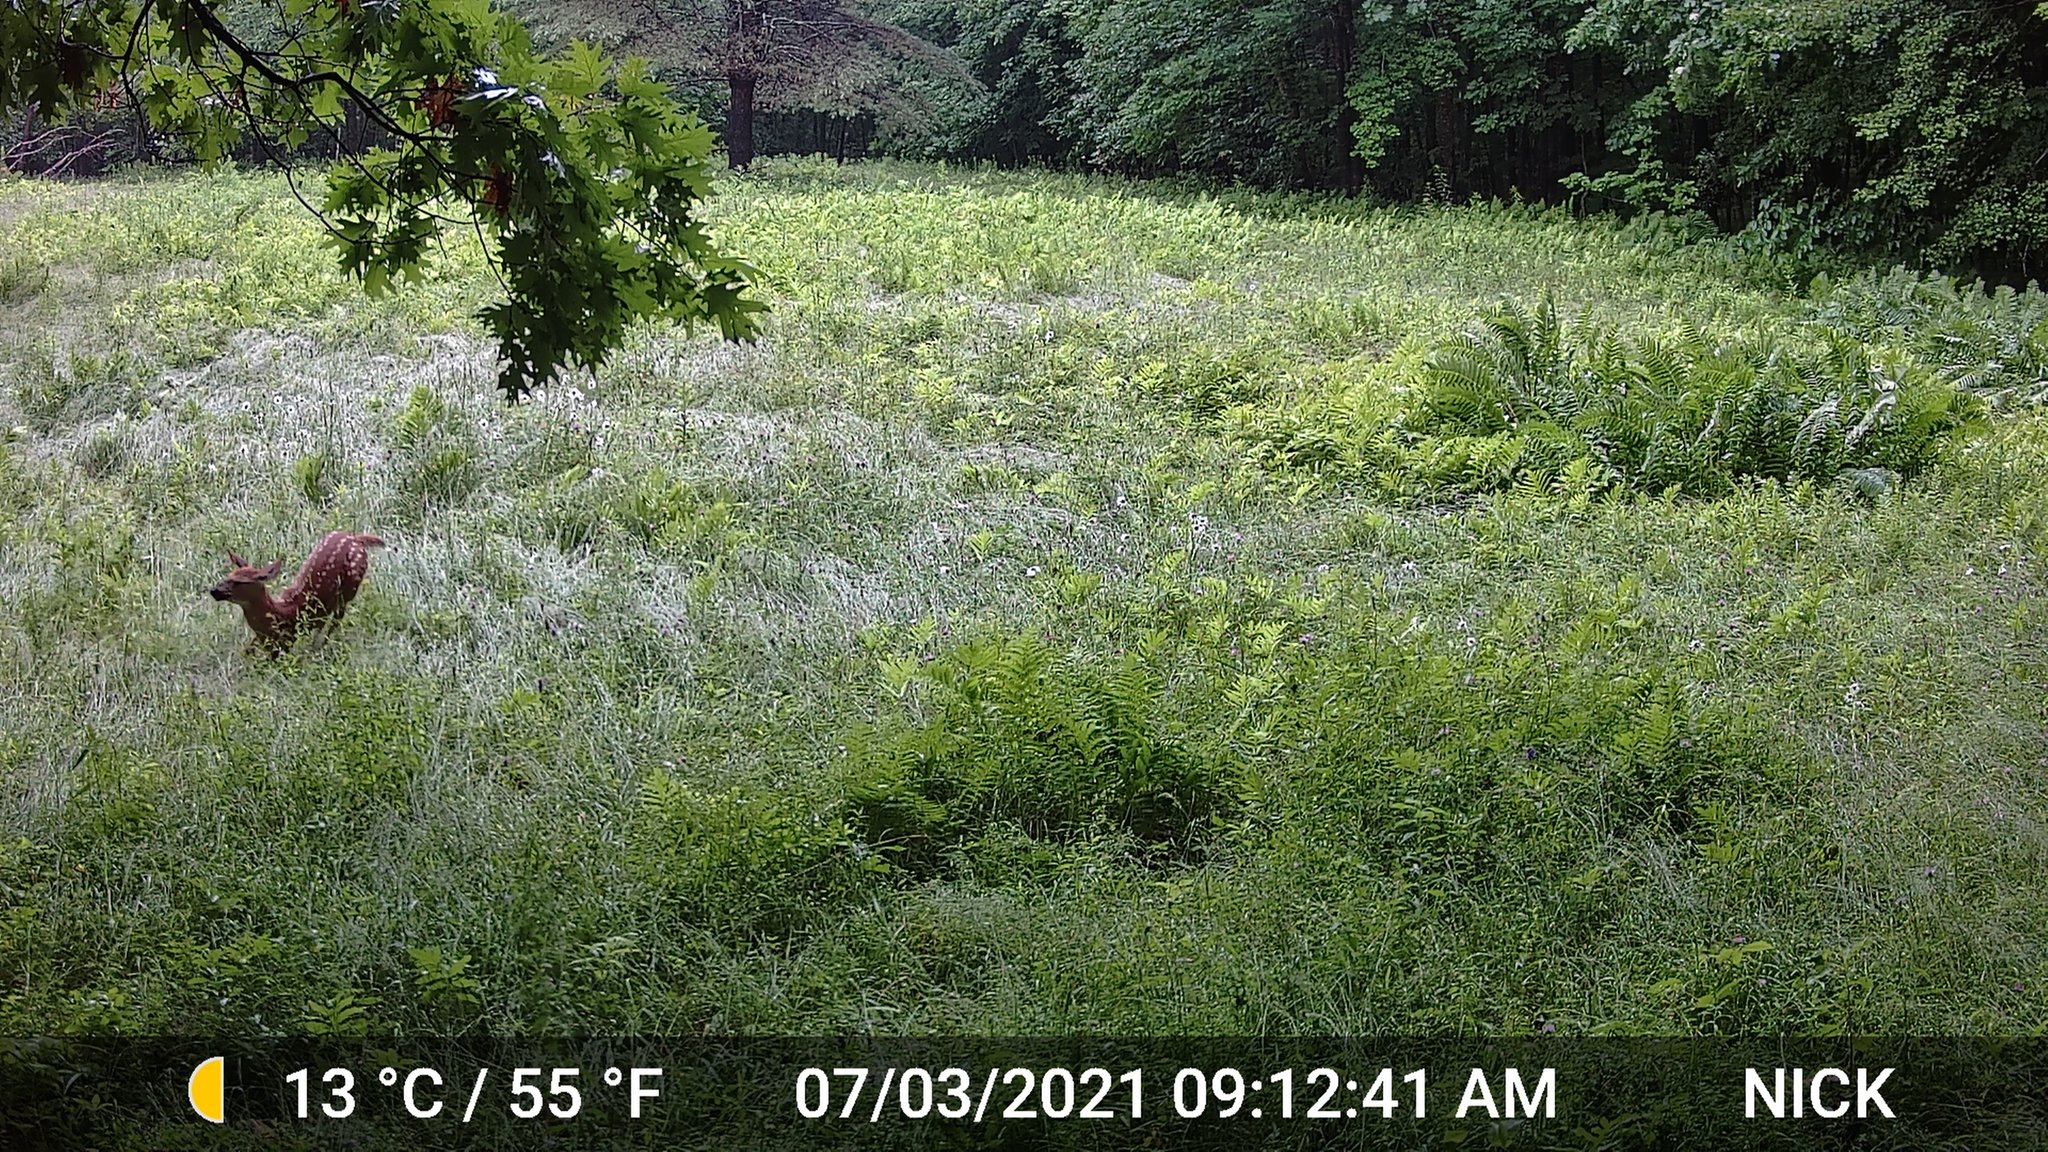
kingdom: Animalia
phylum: Chordata
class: Mammalia
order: Artiodactyla
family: Cervidae
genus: Odocoileus
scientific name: Odocoileus virginianus
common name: White-tailed deer
